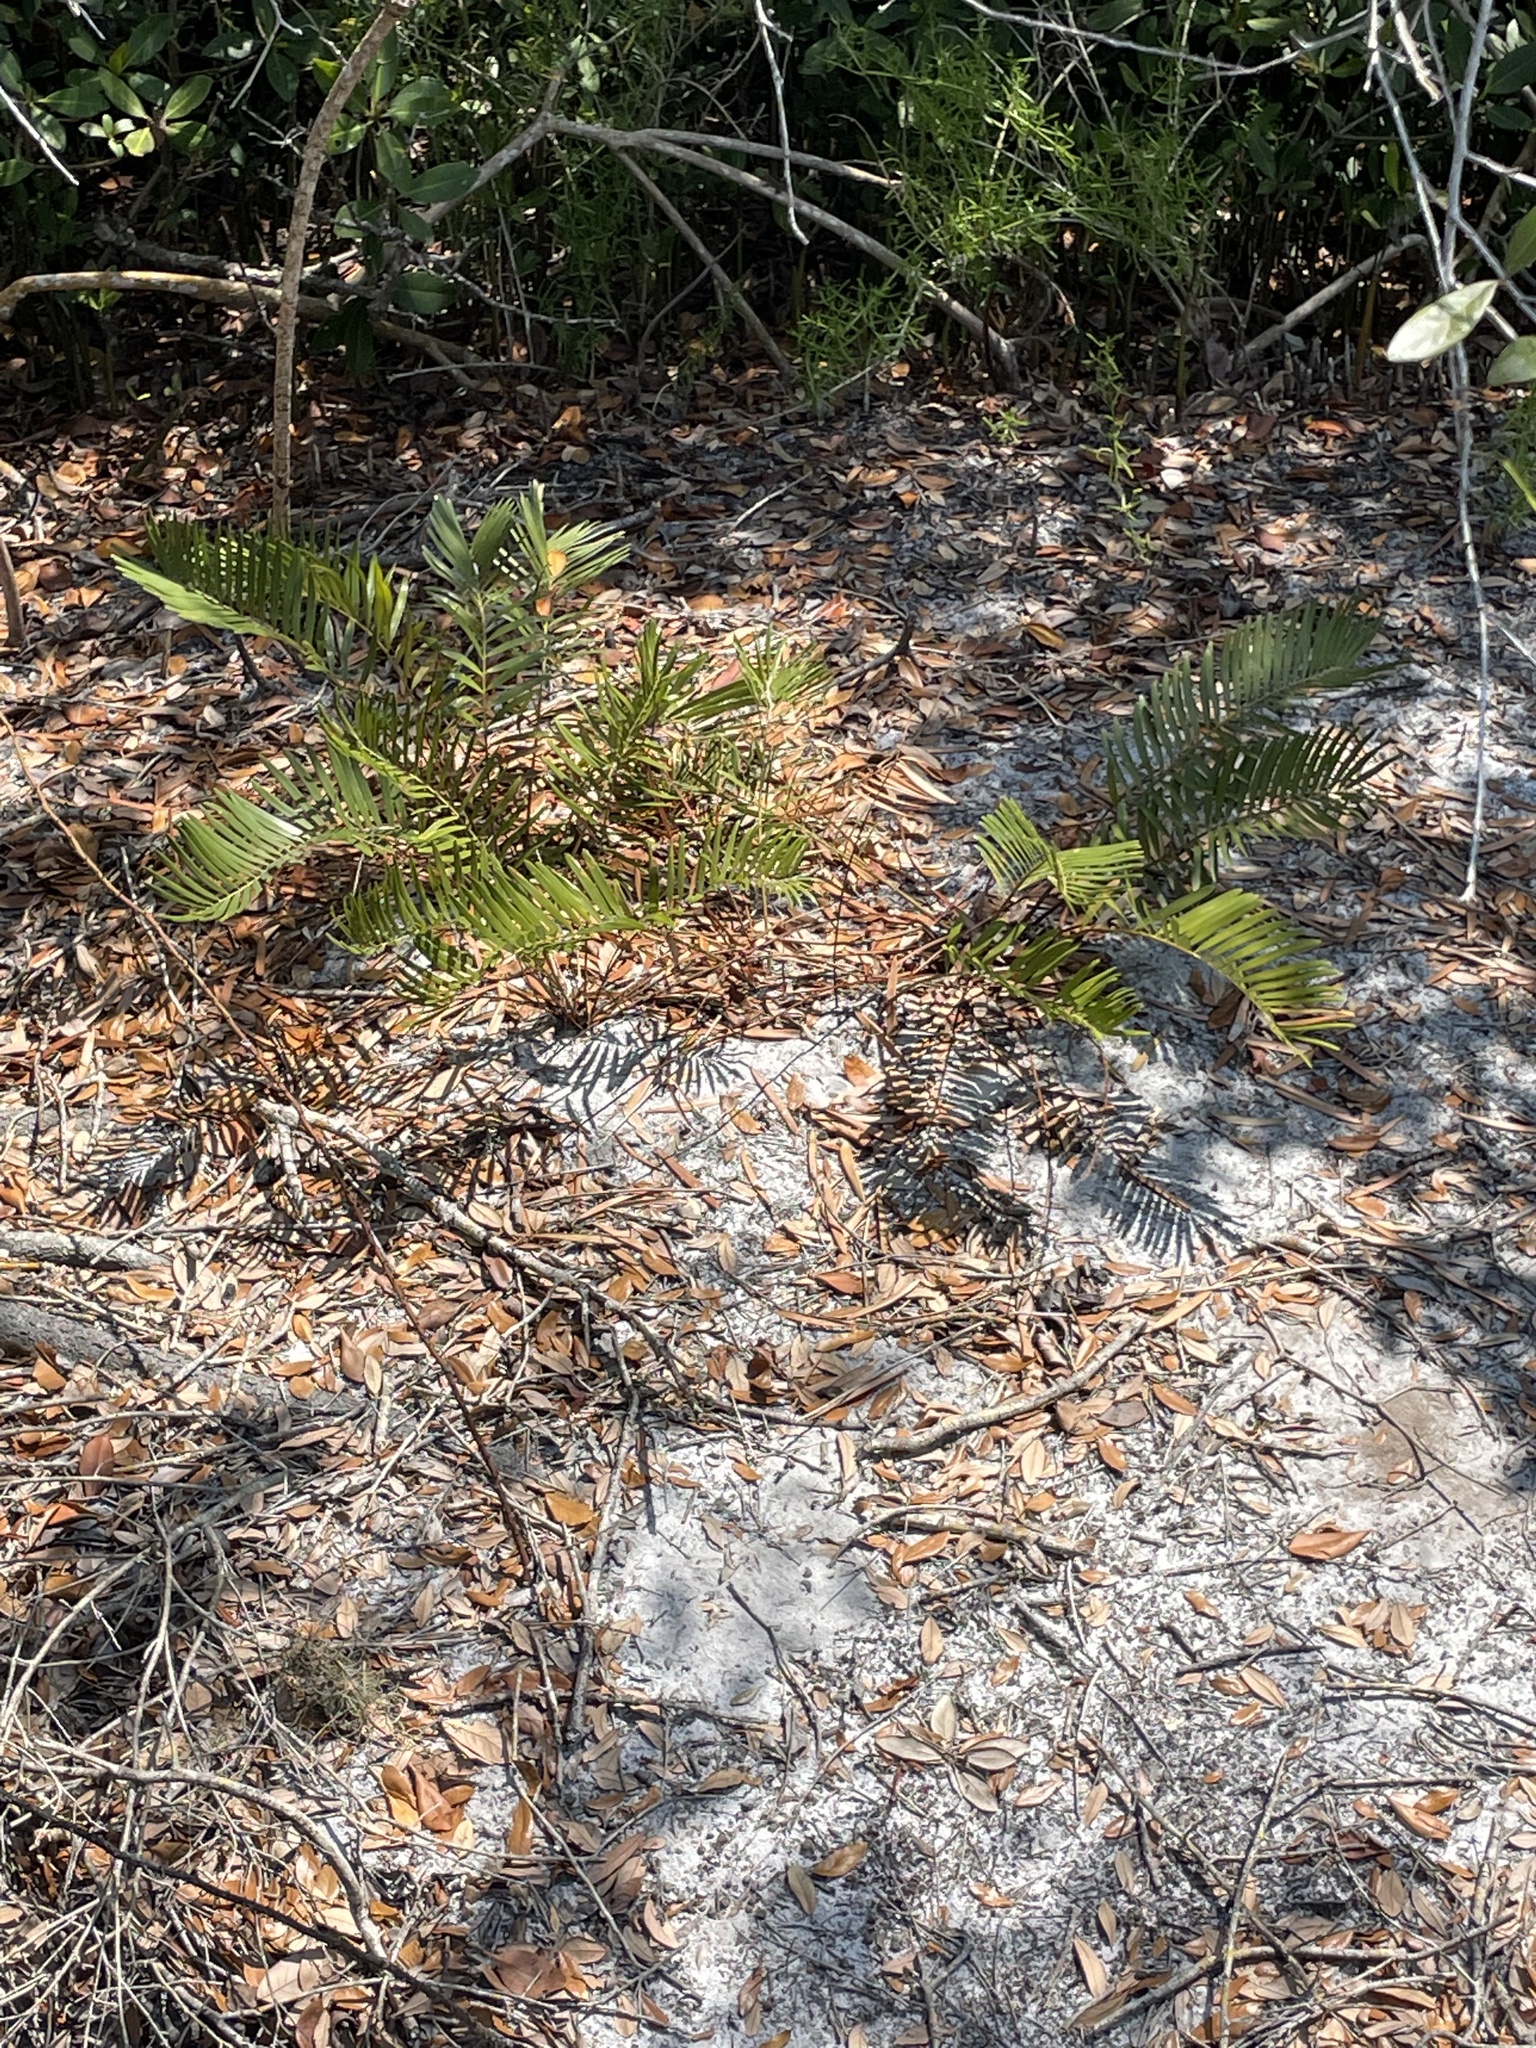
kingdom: Plantae
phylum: Tracheophyta
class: Cycadopsida
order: Cycadales
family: Zamiaceae
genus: Zamia
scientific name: Zamia integrifolia
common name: Florida arrowroot
